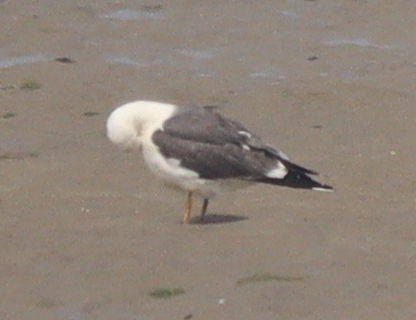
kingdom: Animalia
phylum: Chordata
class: Aves
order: Charadriiformes
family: Laridae
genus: Larus
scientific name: Larus fuscus
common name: Lesser black-backed gull
